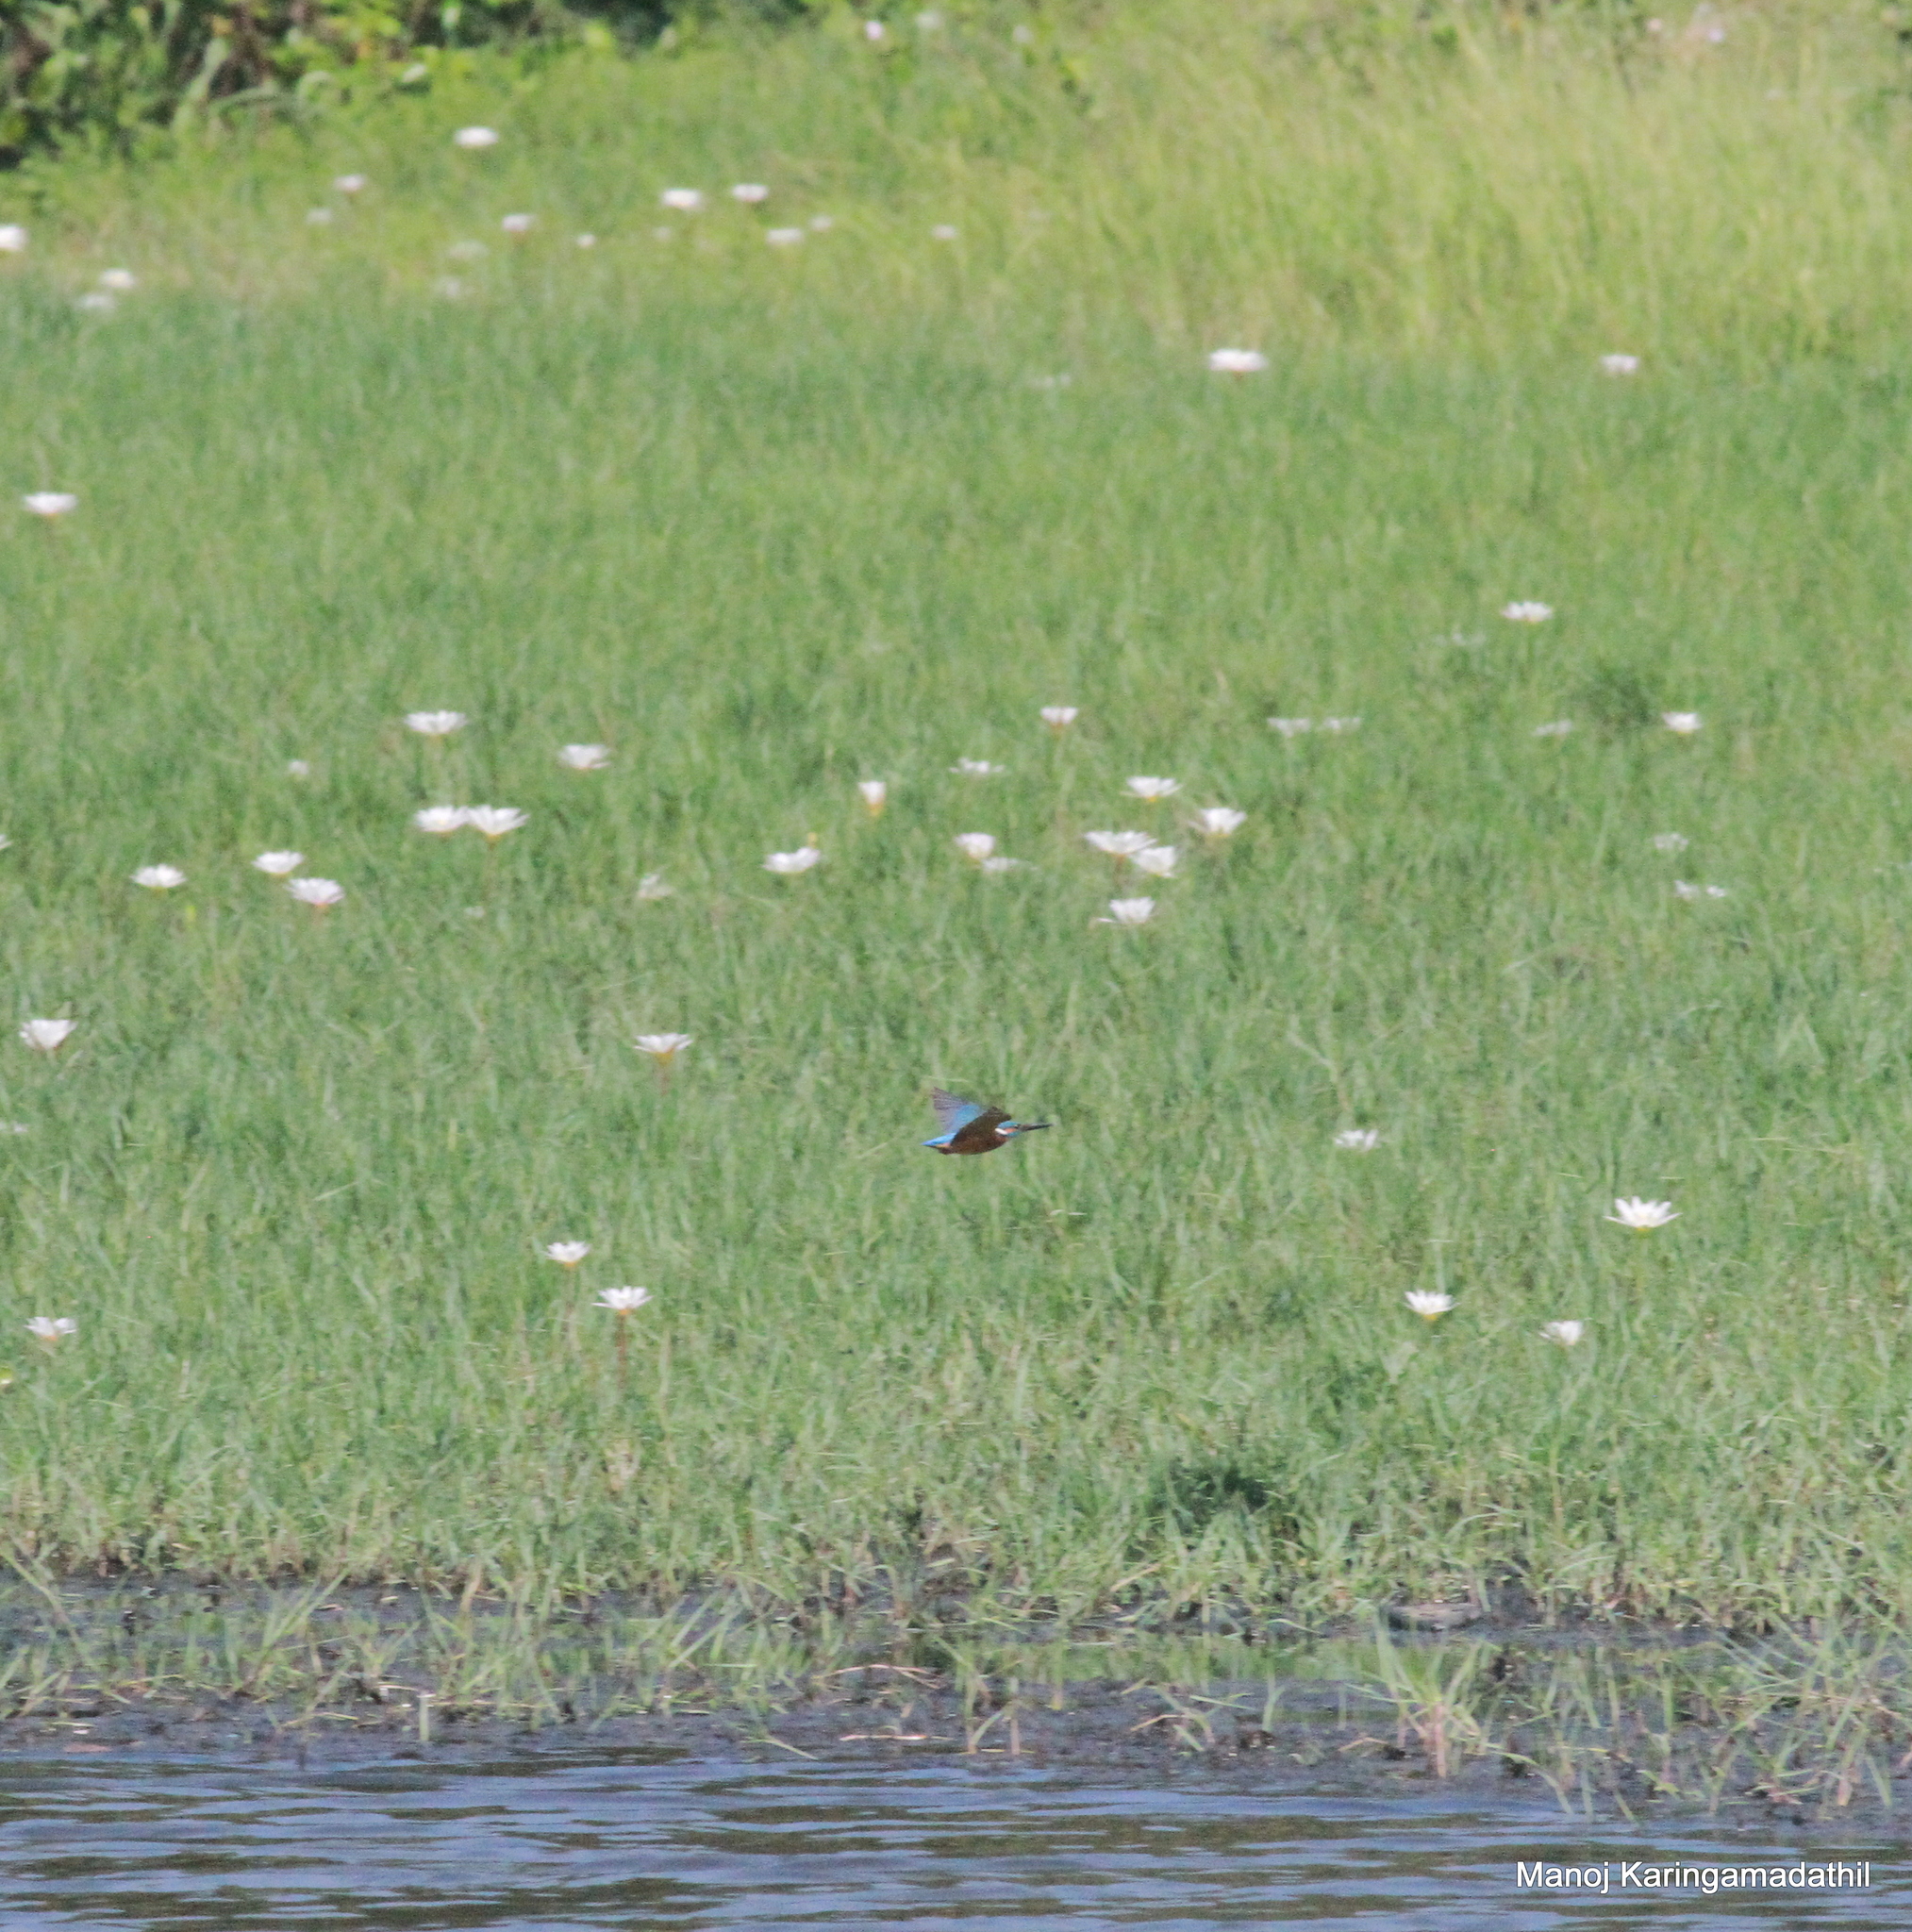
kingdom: Animalia
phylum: Chordata
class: Aves
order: Coraciiformes
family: Alcedinidae
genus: Alcedo
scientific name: Alcedo atthis
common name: Common kingfisher
